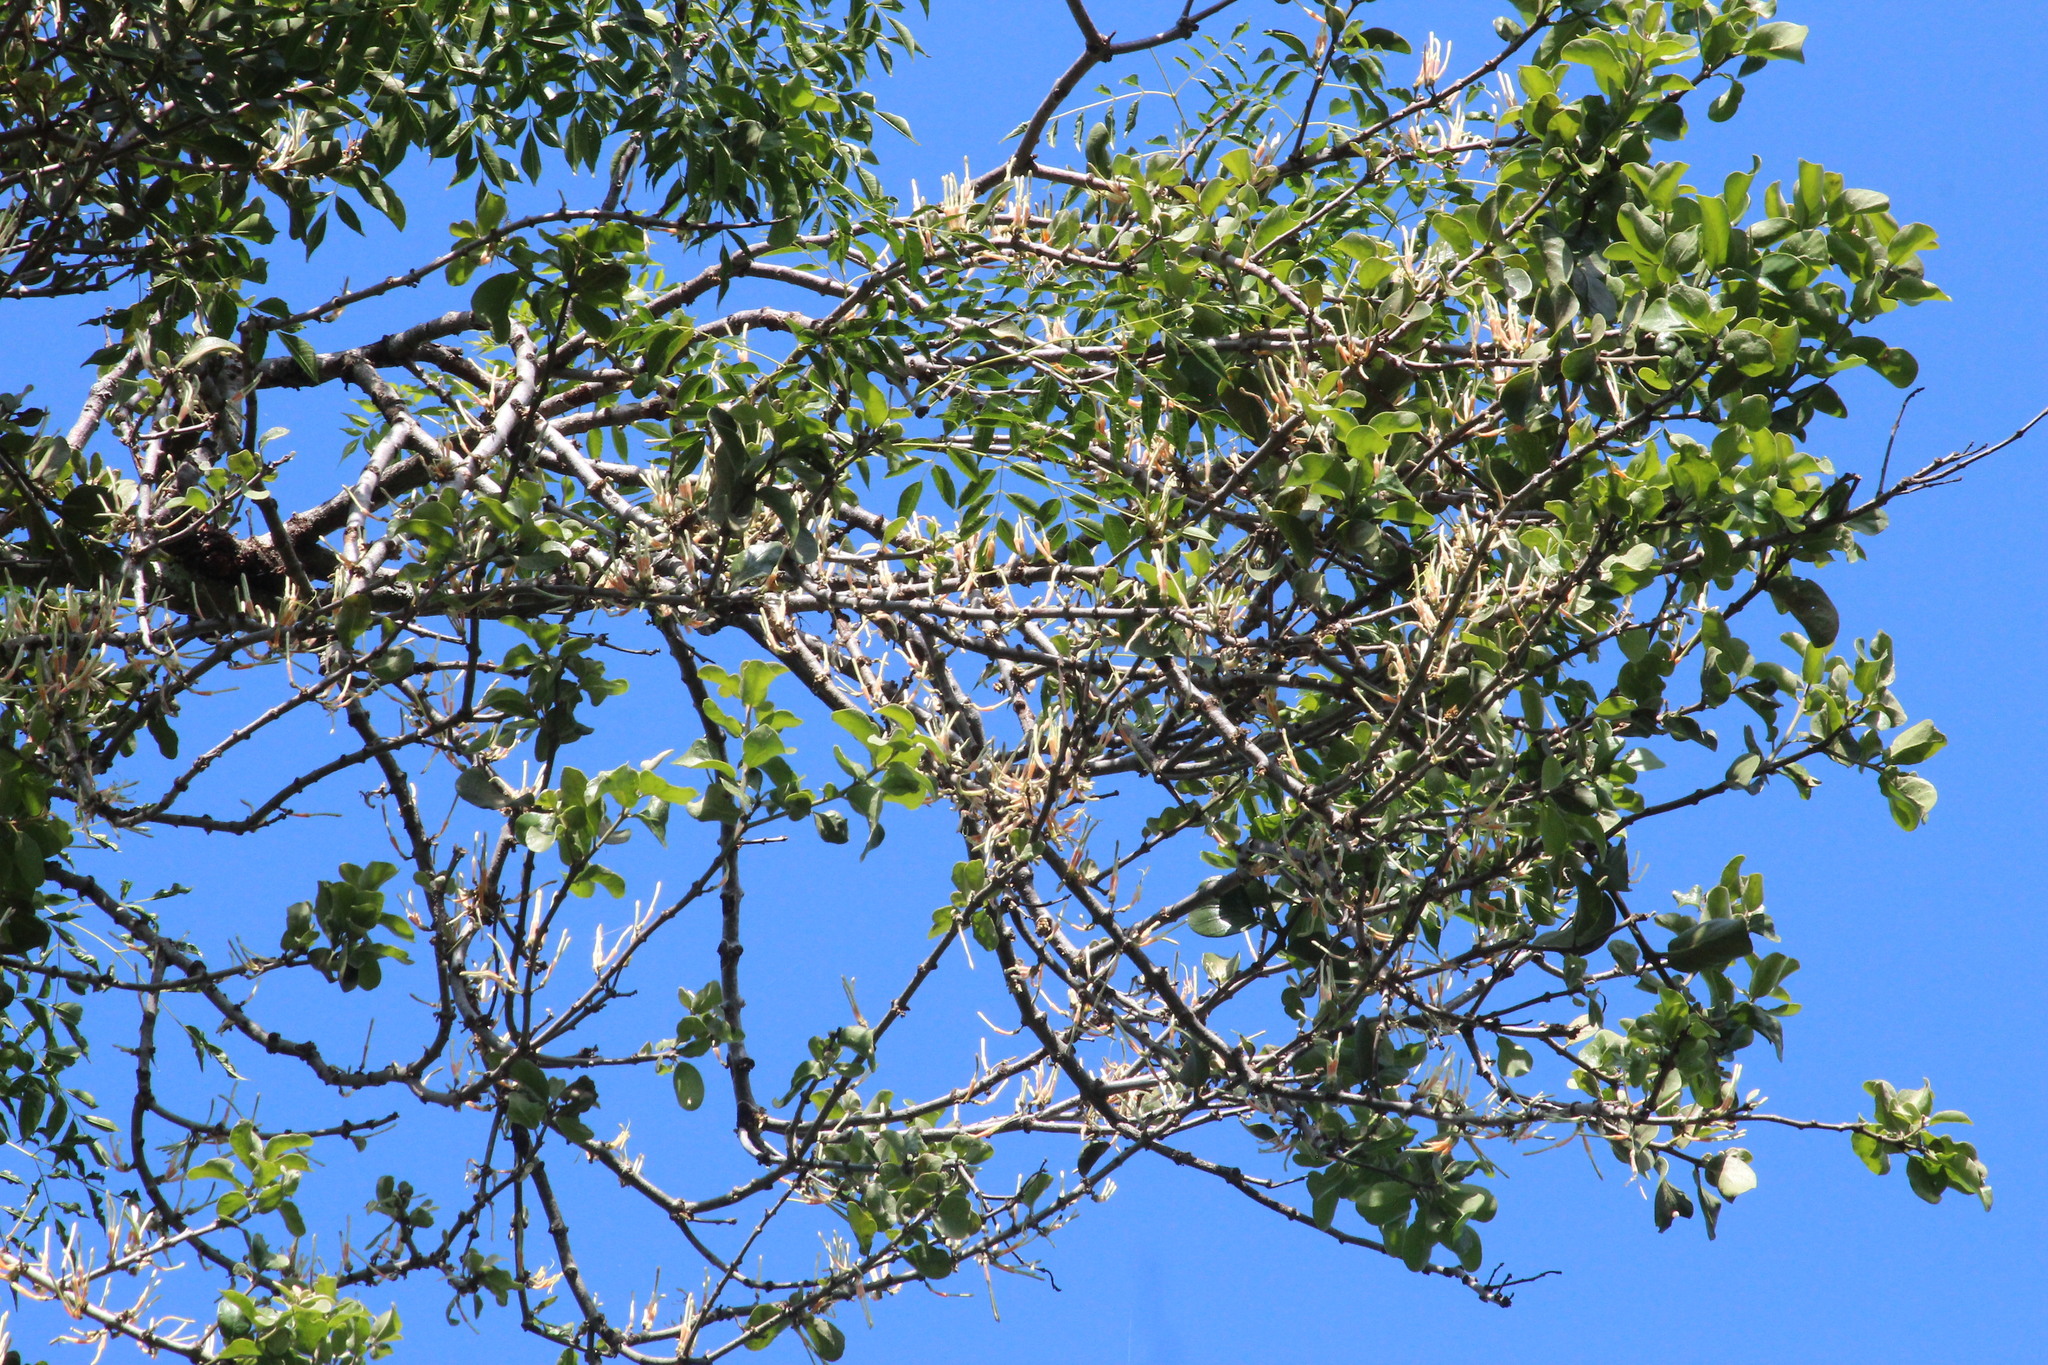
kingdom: Plantae
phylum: Tracheophyta
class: Magnoliopsida
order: Santalales
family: Loranthaceae
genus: Erianthemum
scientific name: Erianthemum dregei
